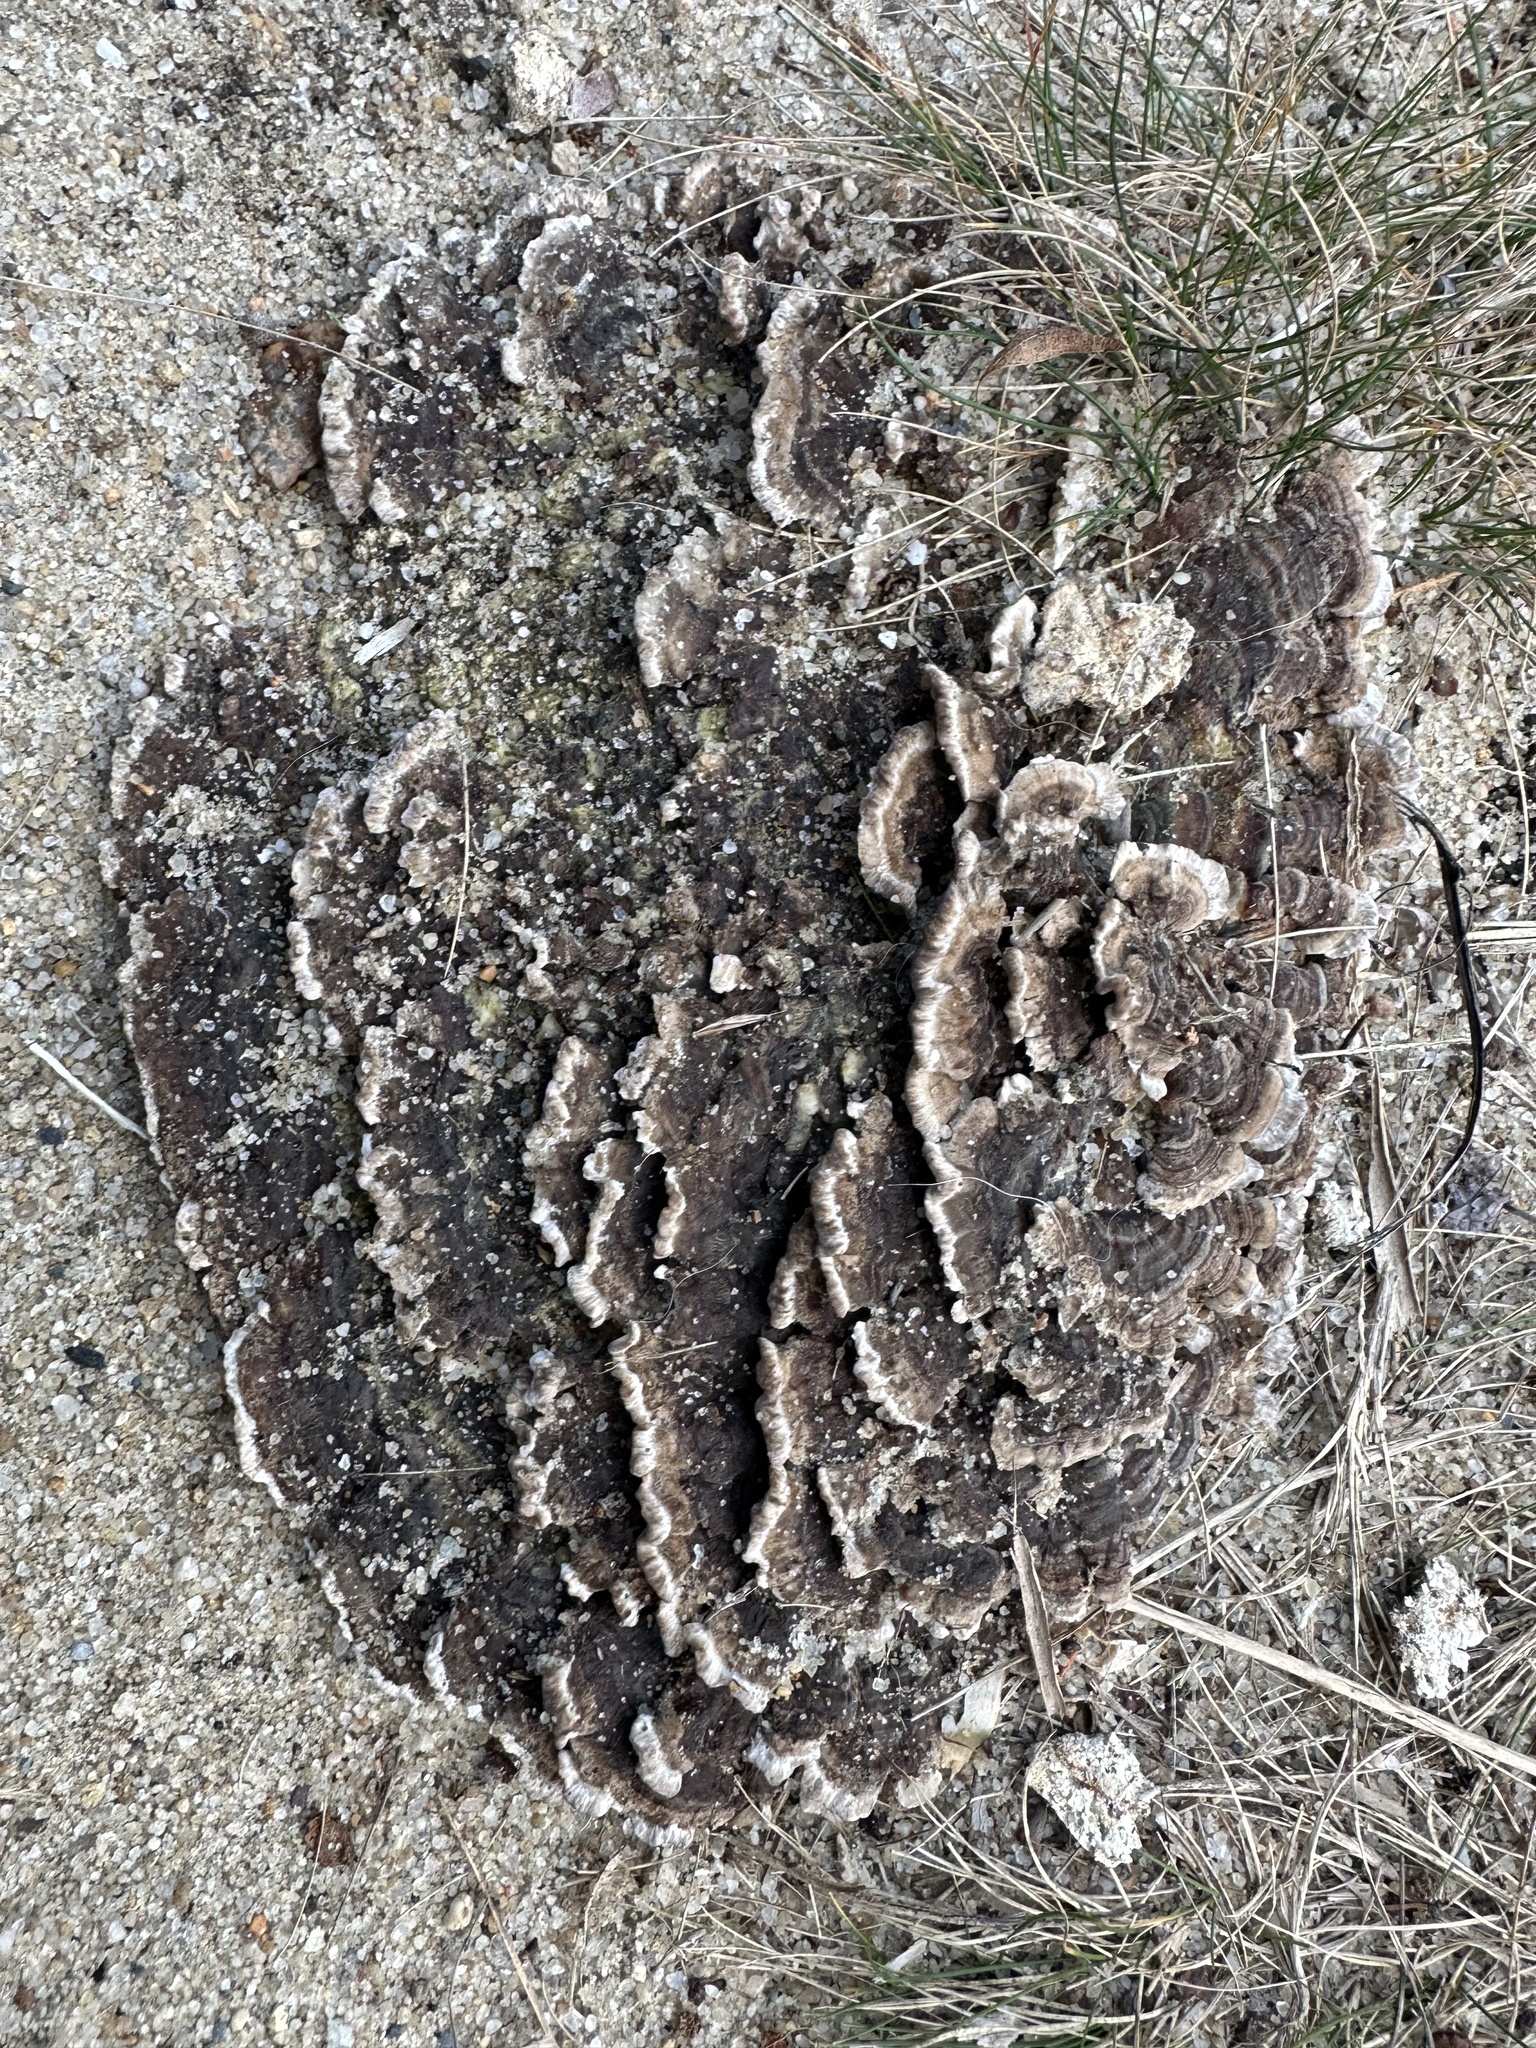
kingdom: Fungi
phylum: Basidiomycota
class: Agaricomycetes
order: Thelephorales
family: Thelephoraceae
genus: Thelephora
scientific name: Thelephora terrestris
